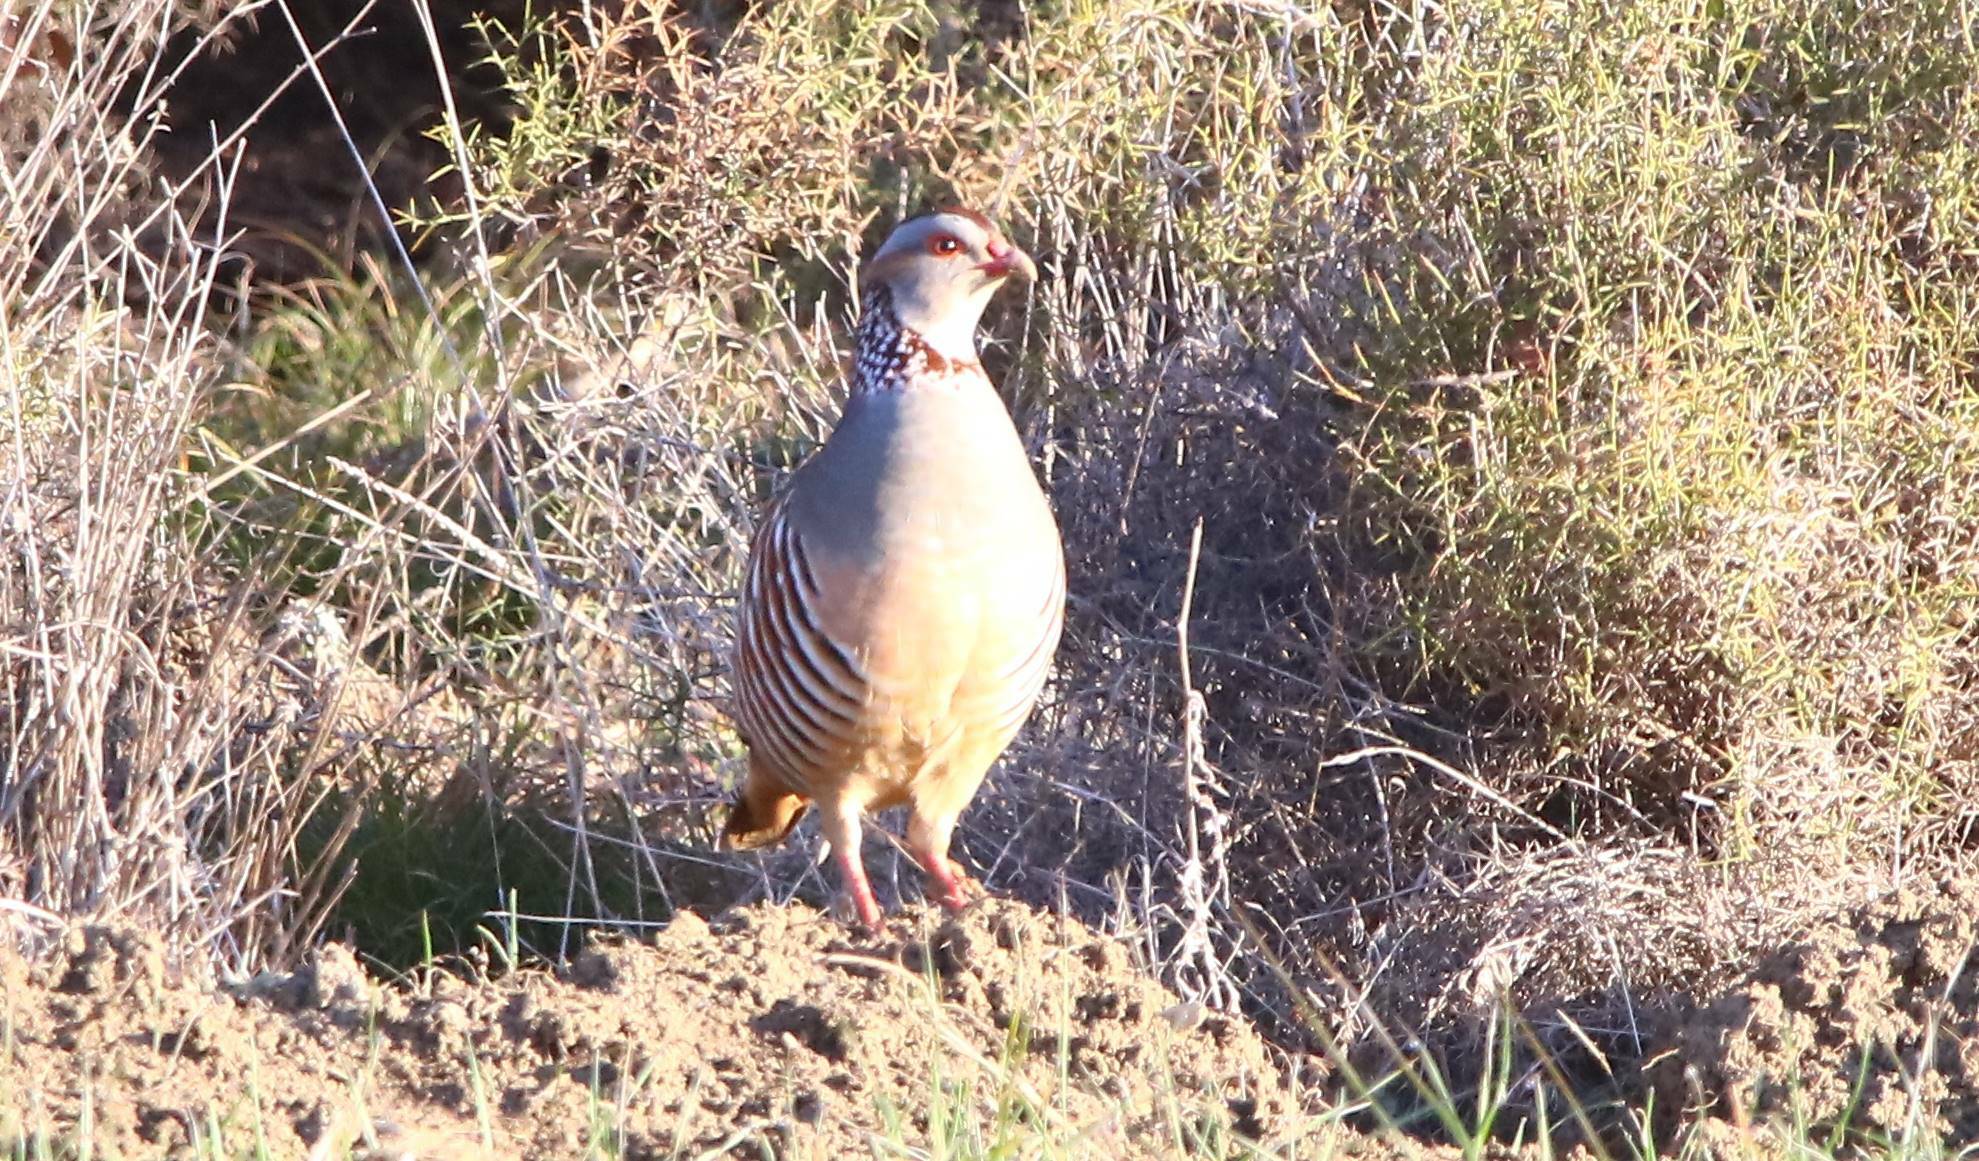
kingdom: Animalia
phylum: Chordata
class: Aves
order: Galliformes
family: Phasianidae
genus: Alectoris
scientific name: Alectoris barbara
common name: Barbary partridge
